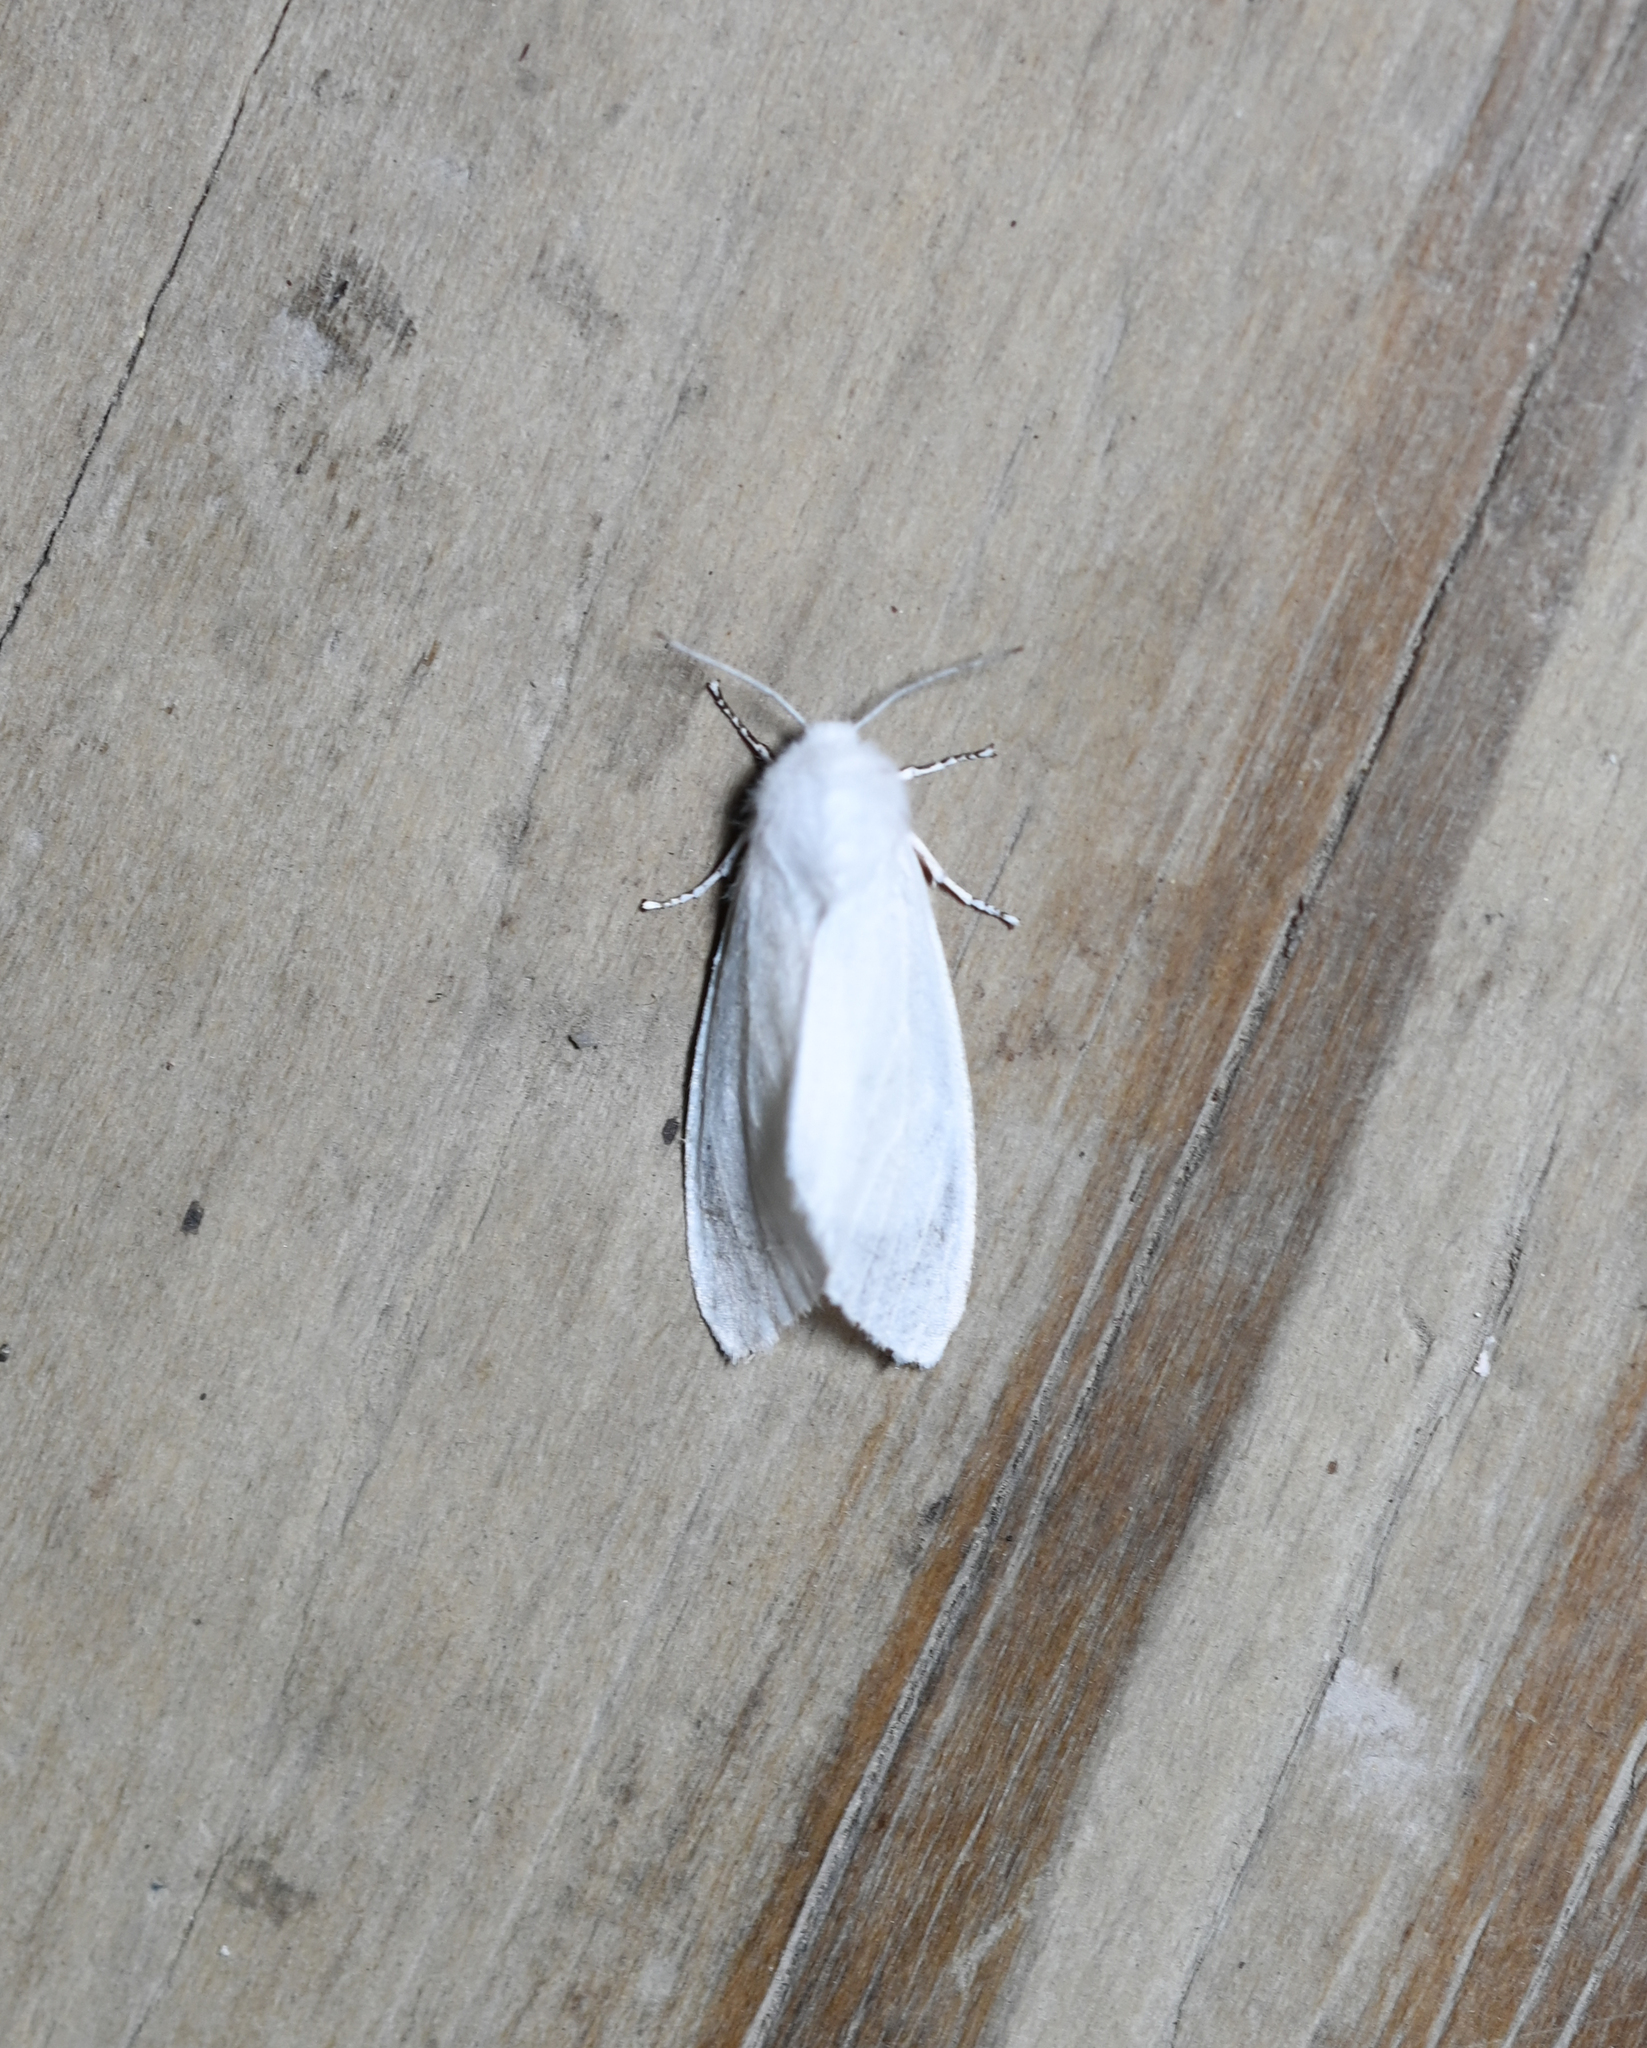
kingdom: Animalia
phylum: Arthropoda
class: Insecta
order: Lepidoptera
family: Erebidae
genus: Hyphantria
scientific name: Hyphantria cunea
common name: American white moth
